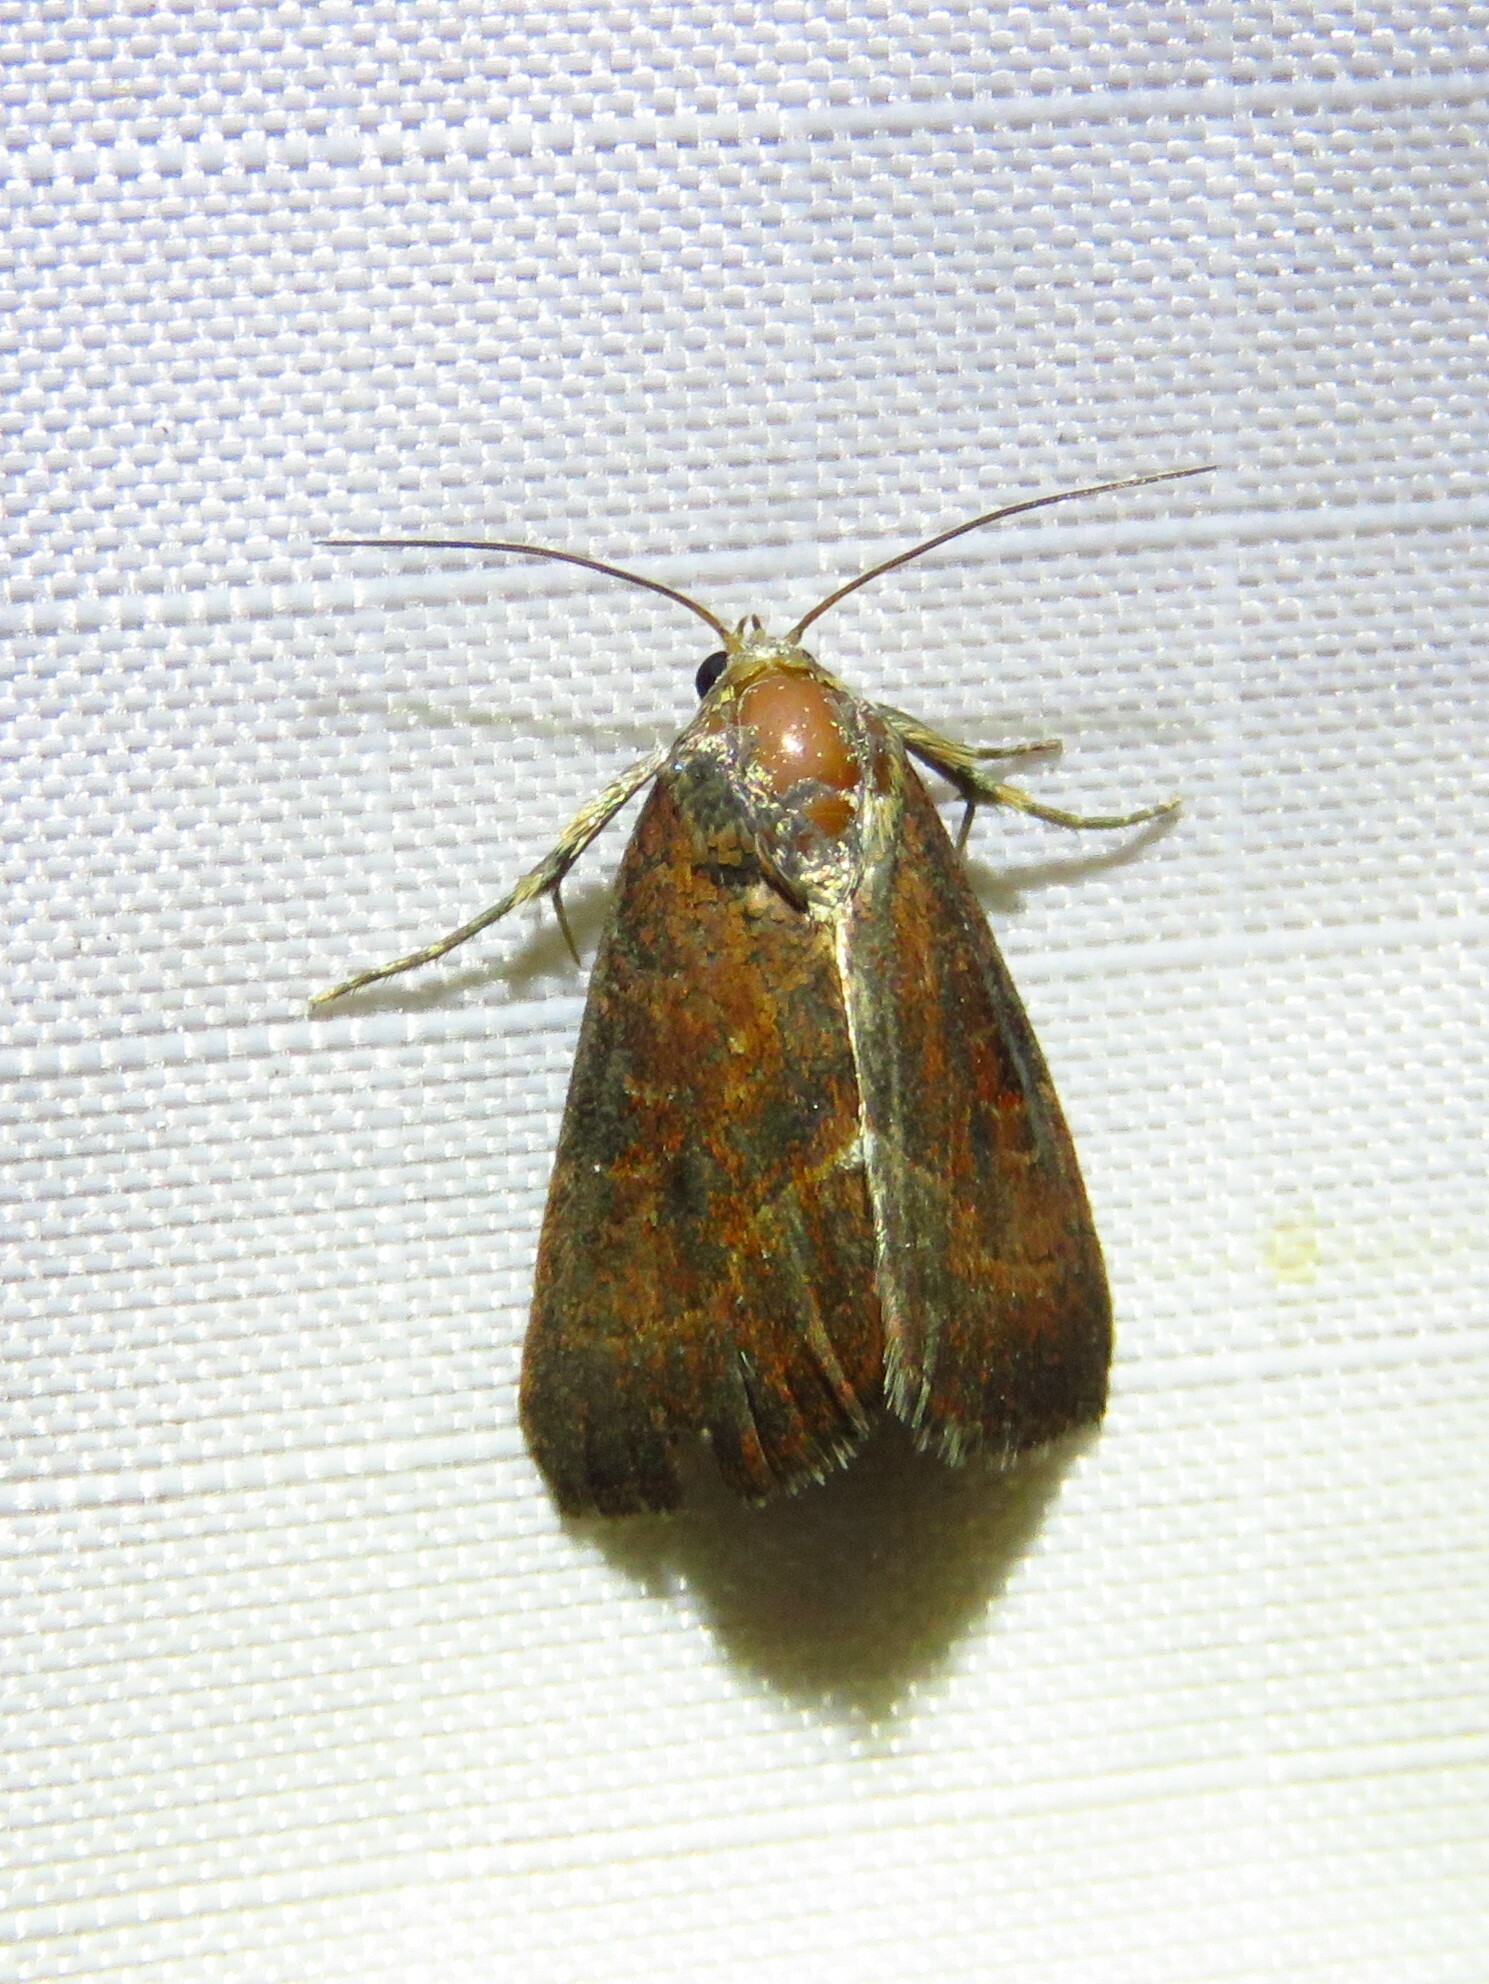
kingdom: Animalia
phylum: Arthropoda
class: Insecta
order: Lepidoptera
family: Noctuidae
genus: Galgula
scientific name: Galgula partita
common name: Wedgeling
